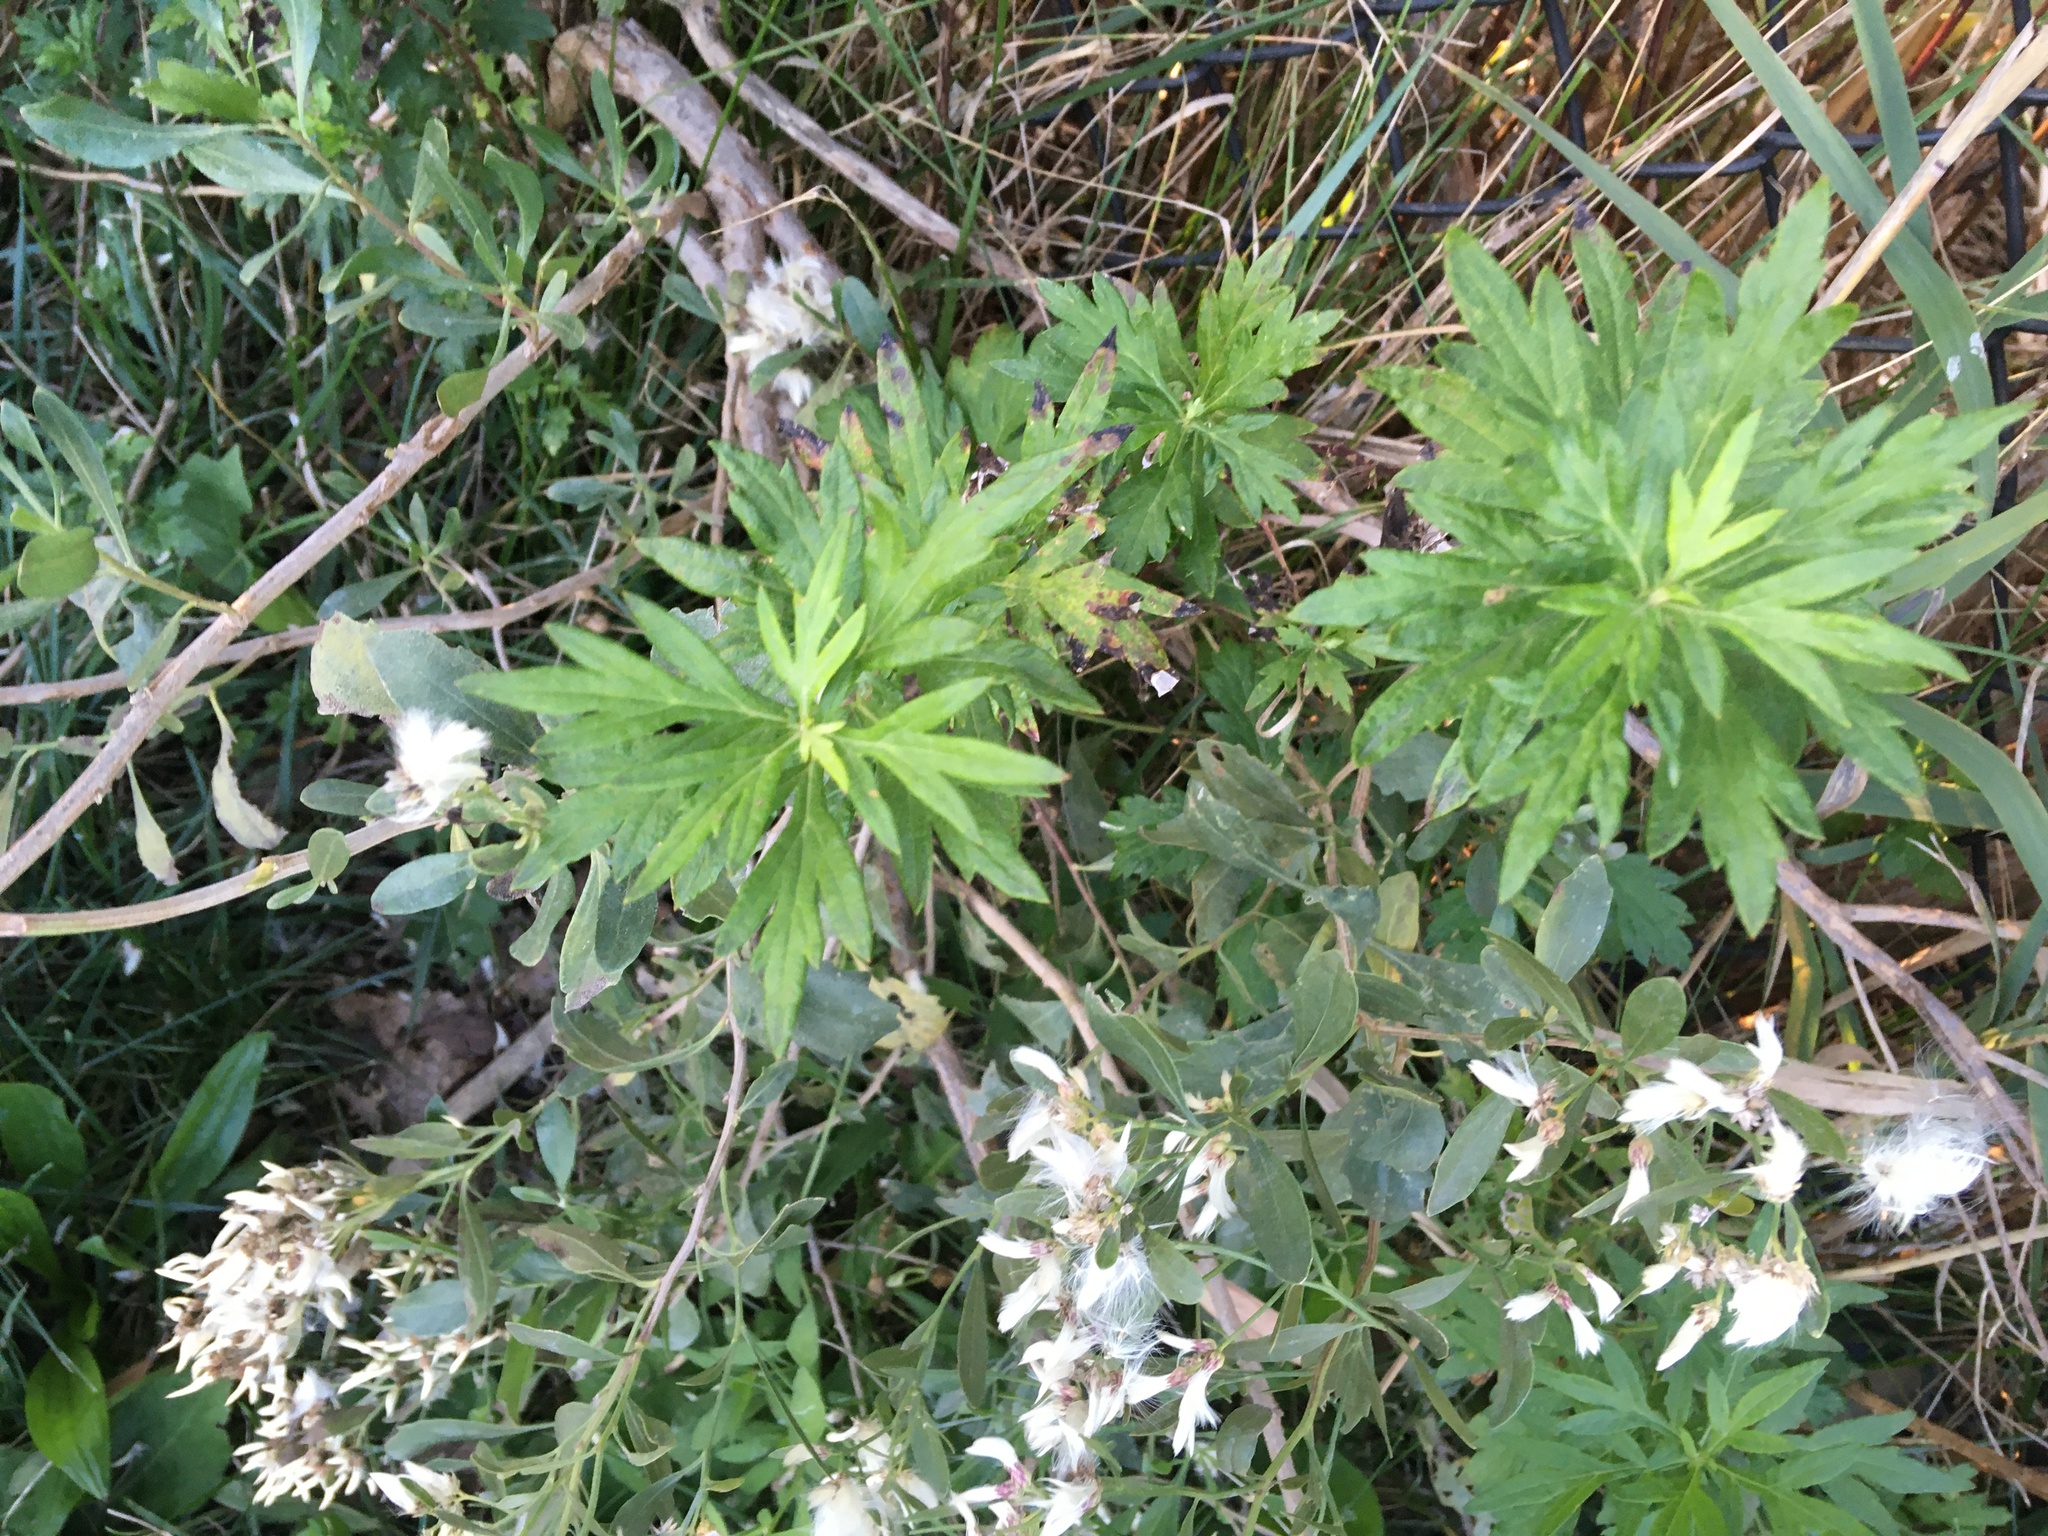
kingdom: Plantae
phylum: Tracheophyta
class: Magnoliopsida
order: Asterales
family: Asteraceae
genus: Artemisia
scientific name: Artemisia vulgaris
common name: Mugwort
